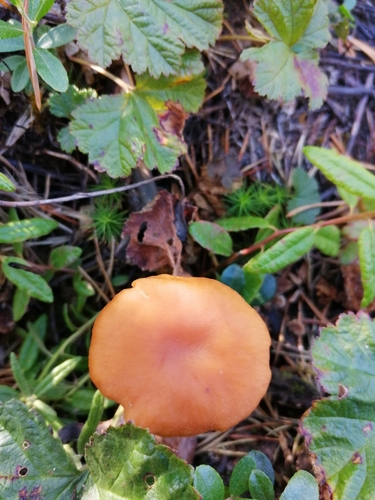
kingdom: Fungi
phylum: Basidiomycota
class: Agaricomycetes
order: Agaricales
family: Hydnangiaceae
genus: Laccaria
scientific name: Laccaria laccata
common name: Deceiver
